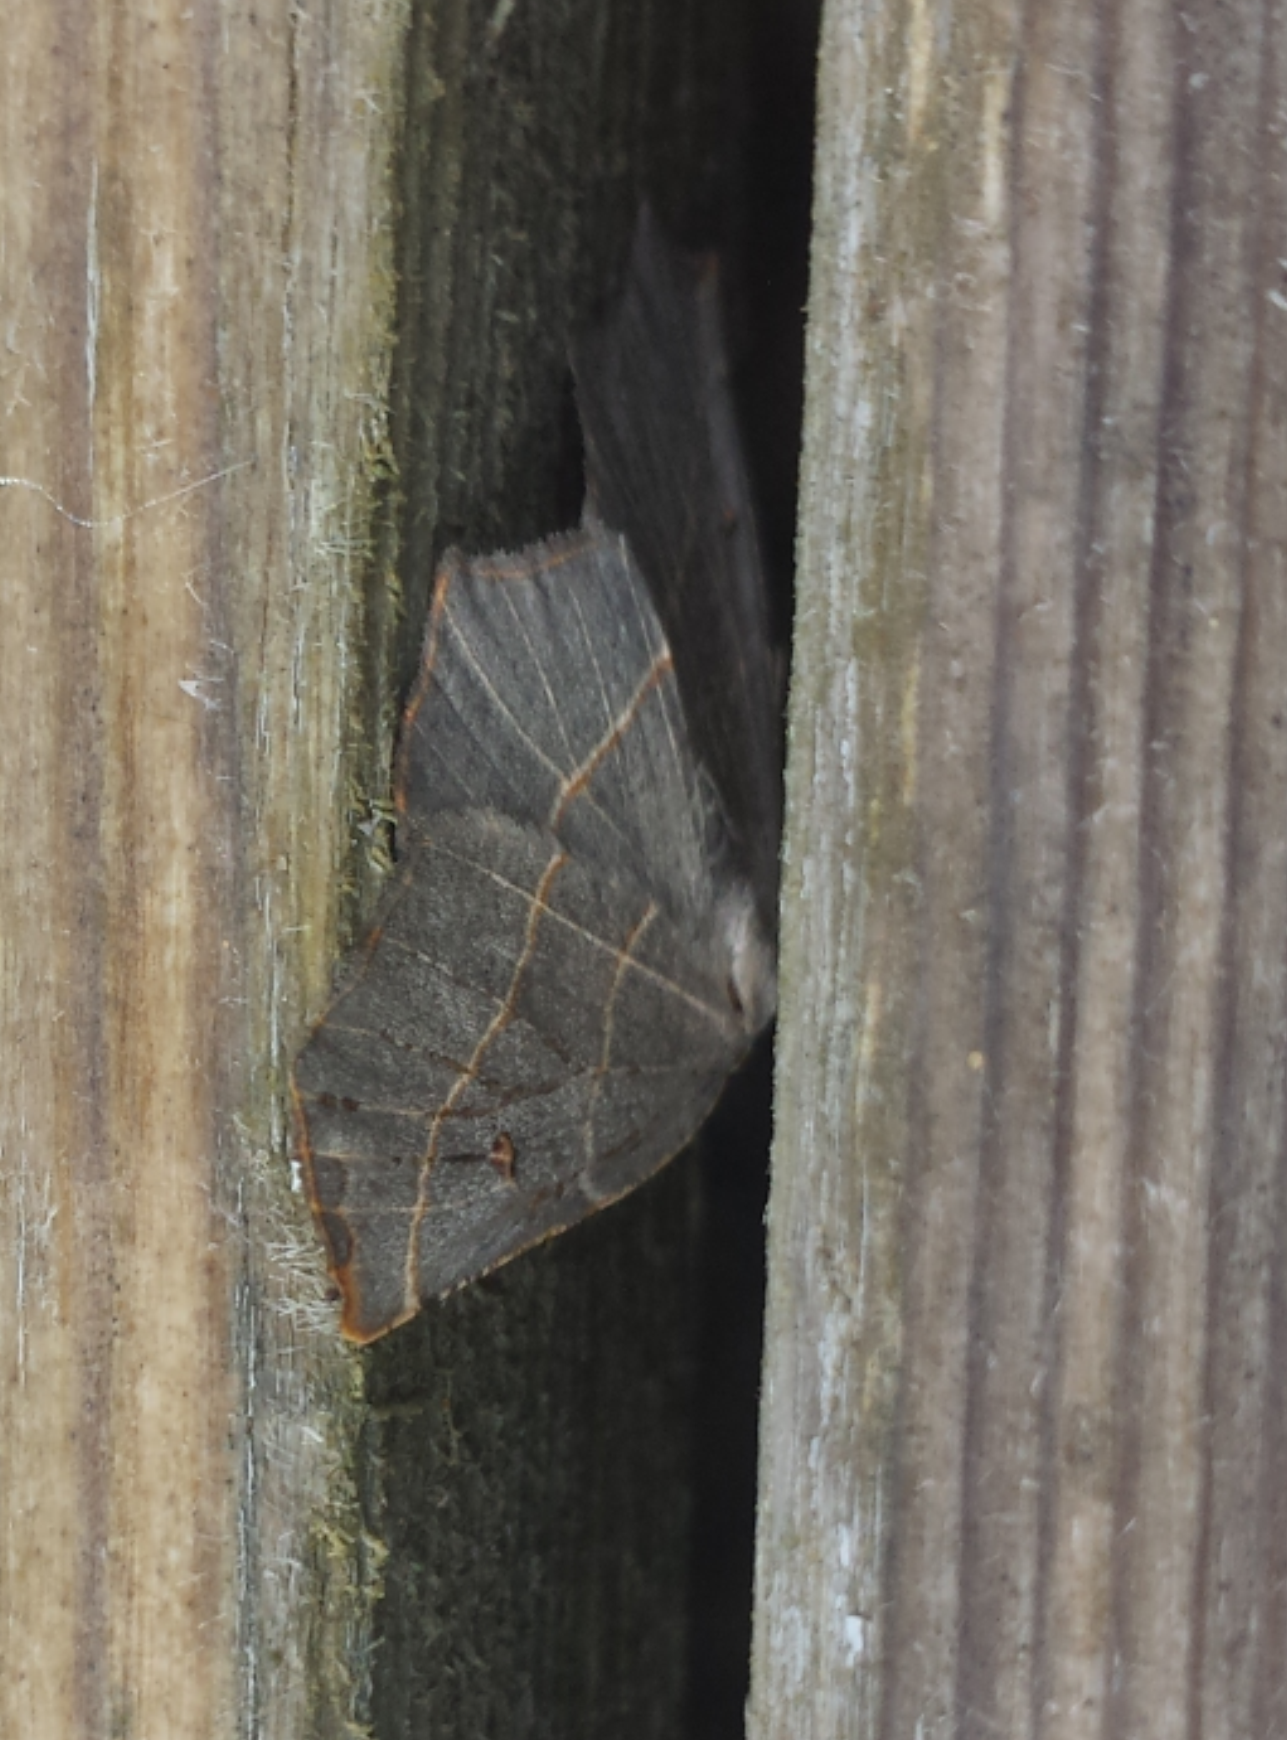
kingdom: Animalia
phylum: Arthropoda
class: Insecta
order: Lepidoptera
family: Geometridae
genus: Metanema
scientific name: Metanema inatomaria
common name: Pale metanema
